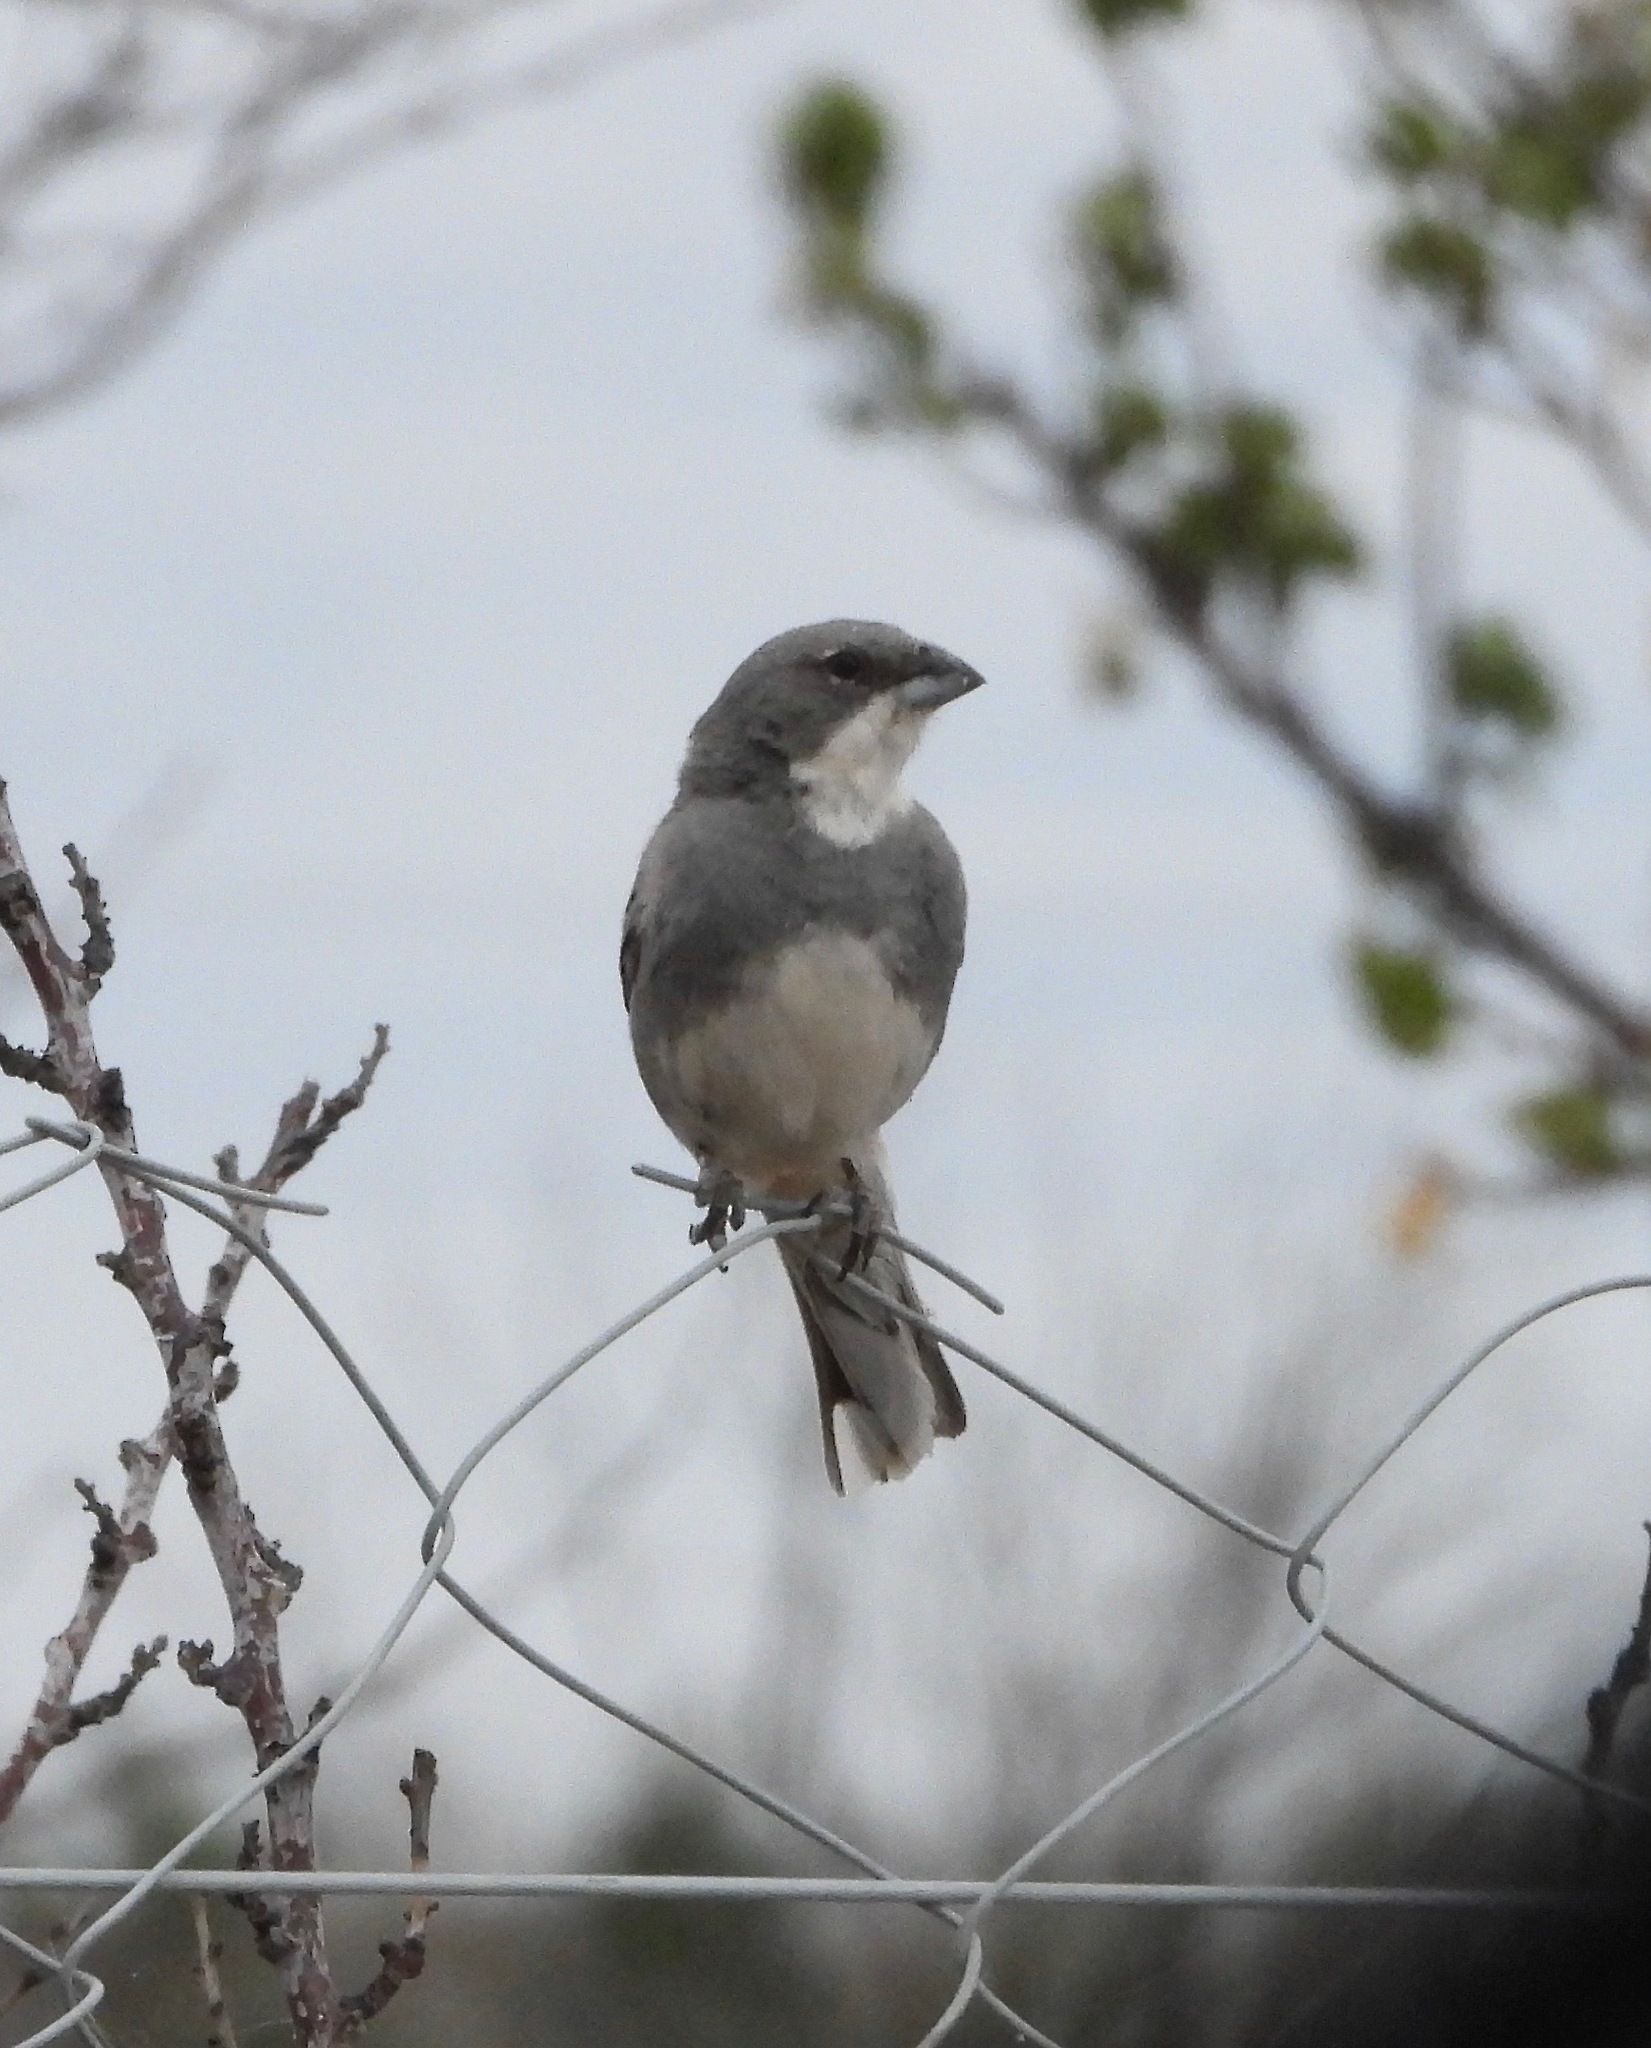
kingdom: Animalia
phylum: Chordata
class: Aves
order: Passeriformes
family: Thraupidae
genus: Diuca
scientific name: Diuca diuca
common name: Common diuca finch
